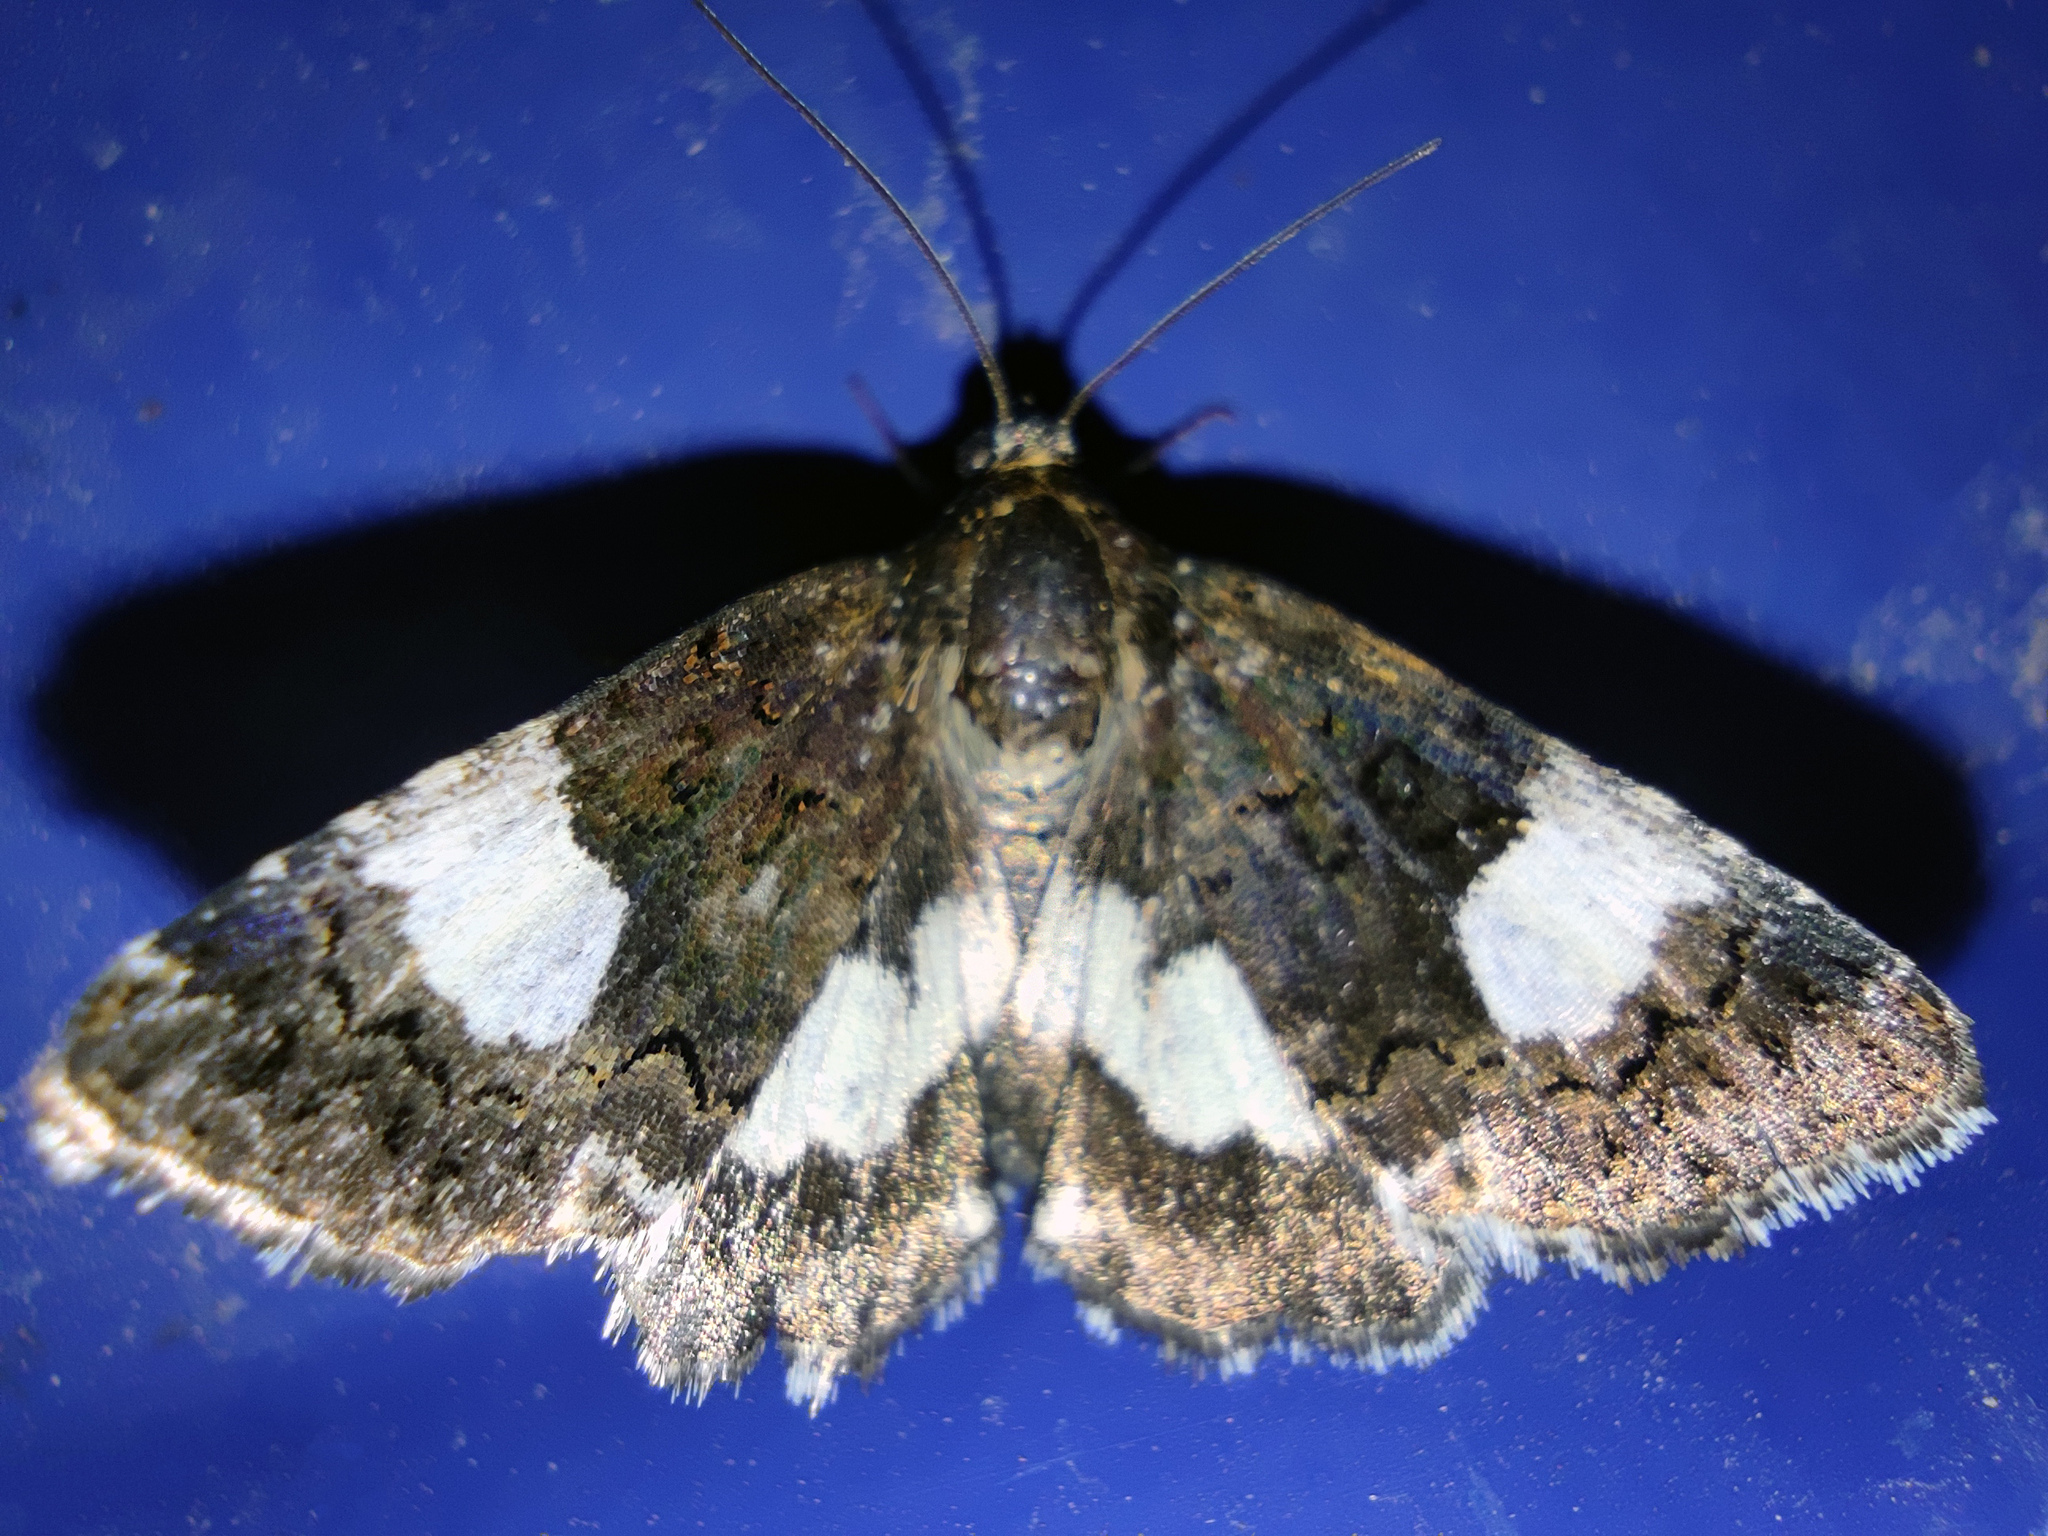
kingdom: Animalia
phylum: Arthropoda
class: Insecta
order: Lepidoptera
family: Erebidae
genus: Tyta
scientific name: Tyta luctuosa
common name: Four-spotted
